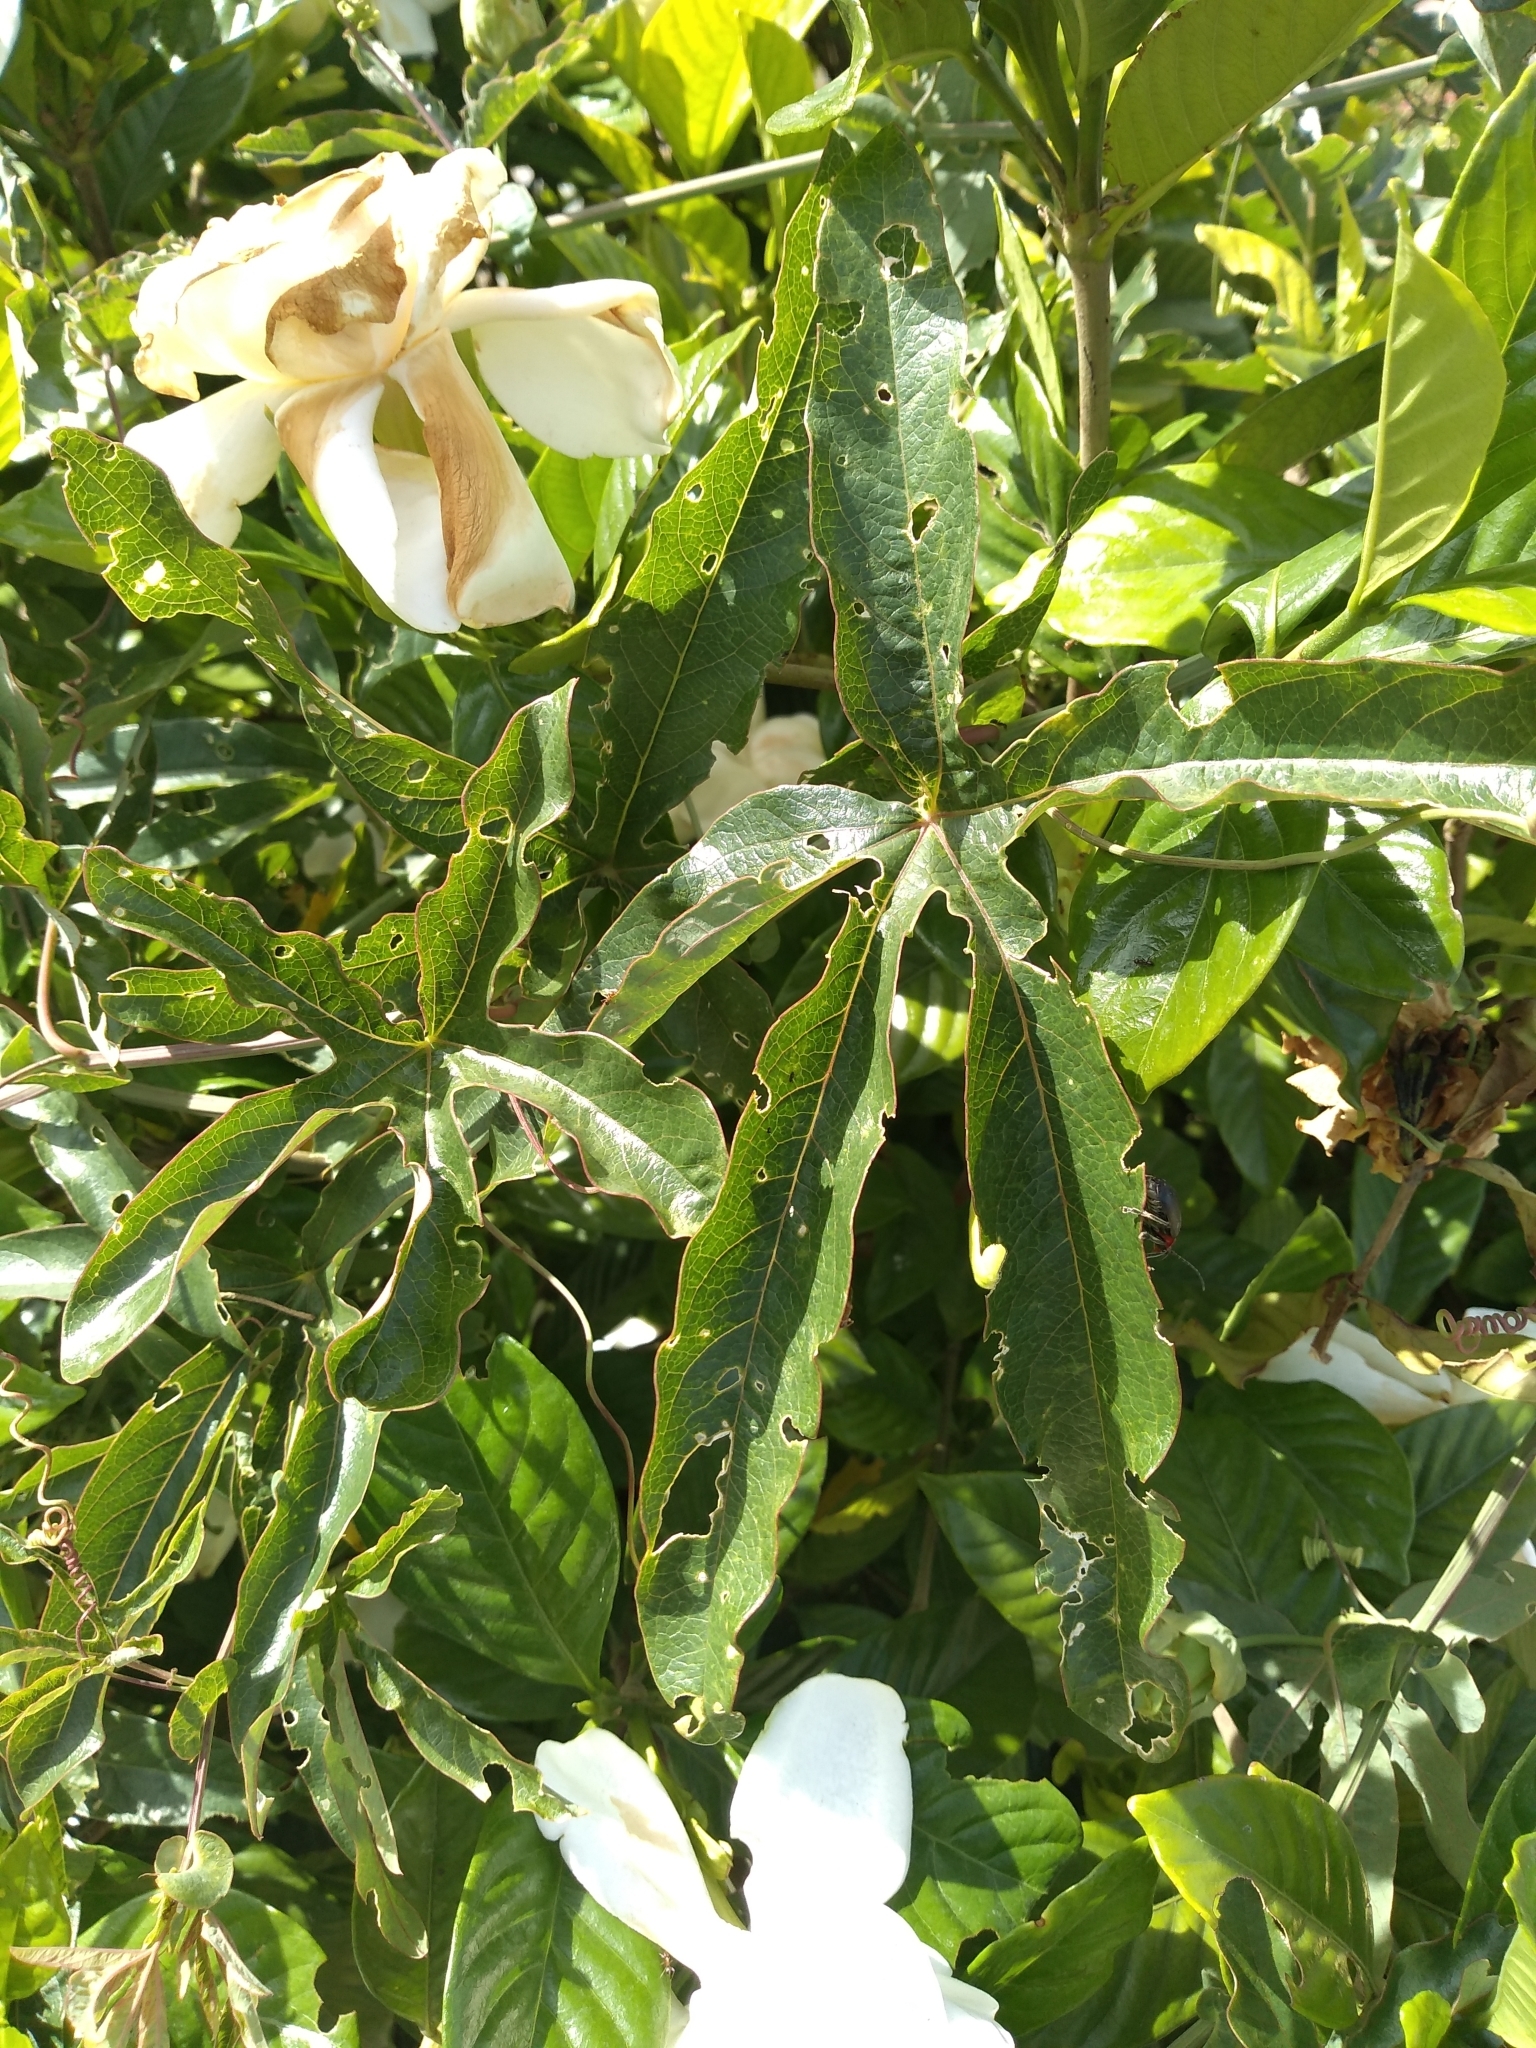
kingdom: Plantae
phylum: Tracheophyta
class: Magnoliopsida
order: Malpighiales
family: Passifloraceae
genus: Passiflora
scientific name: Passiflora caerulea
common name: Blue passionflower
